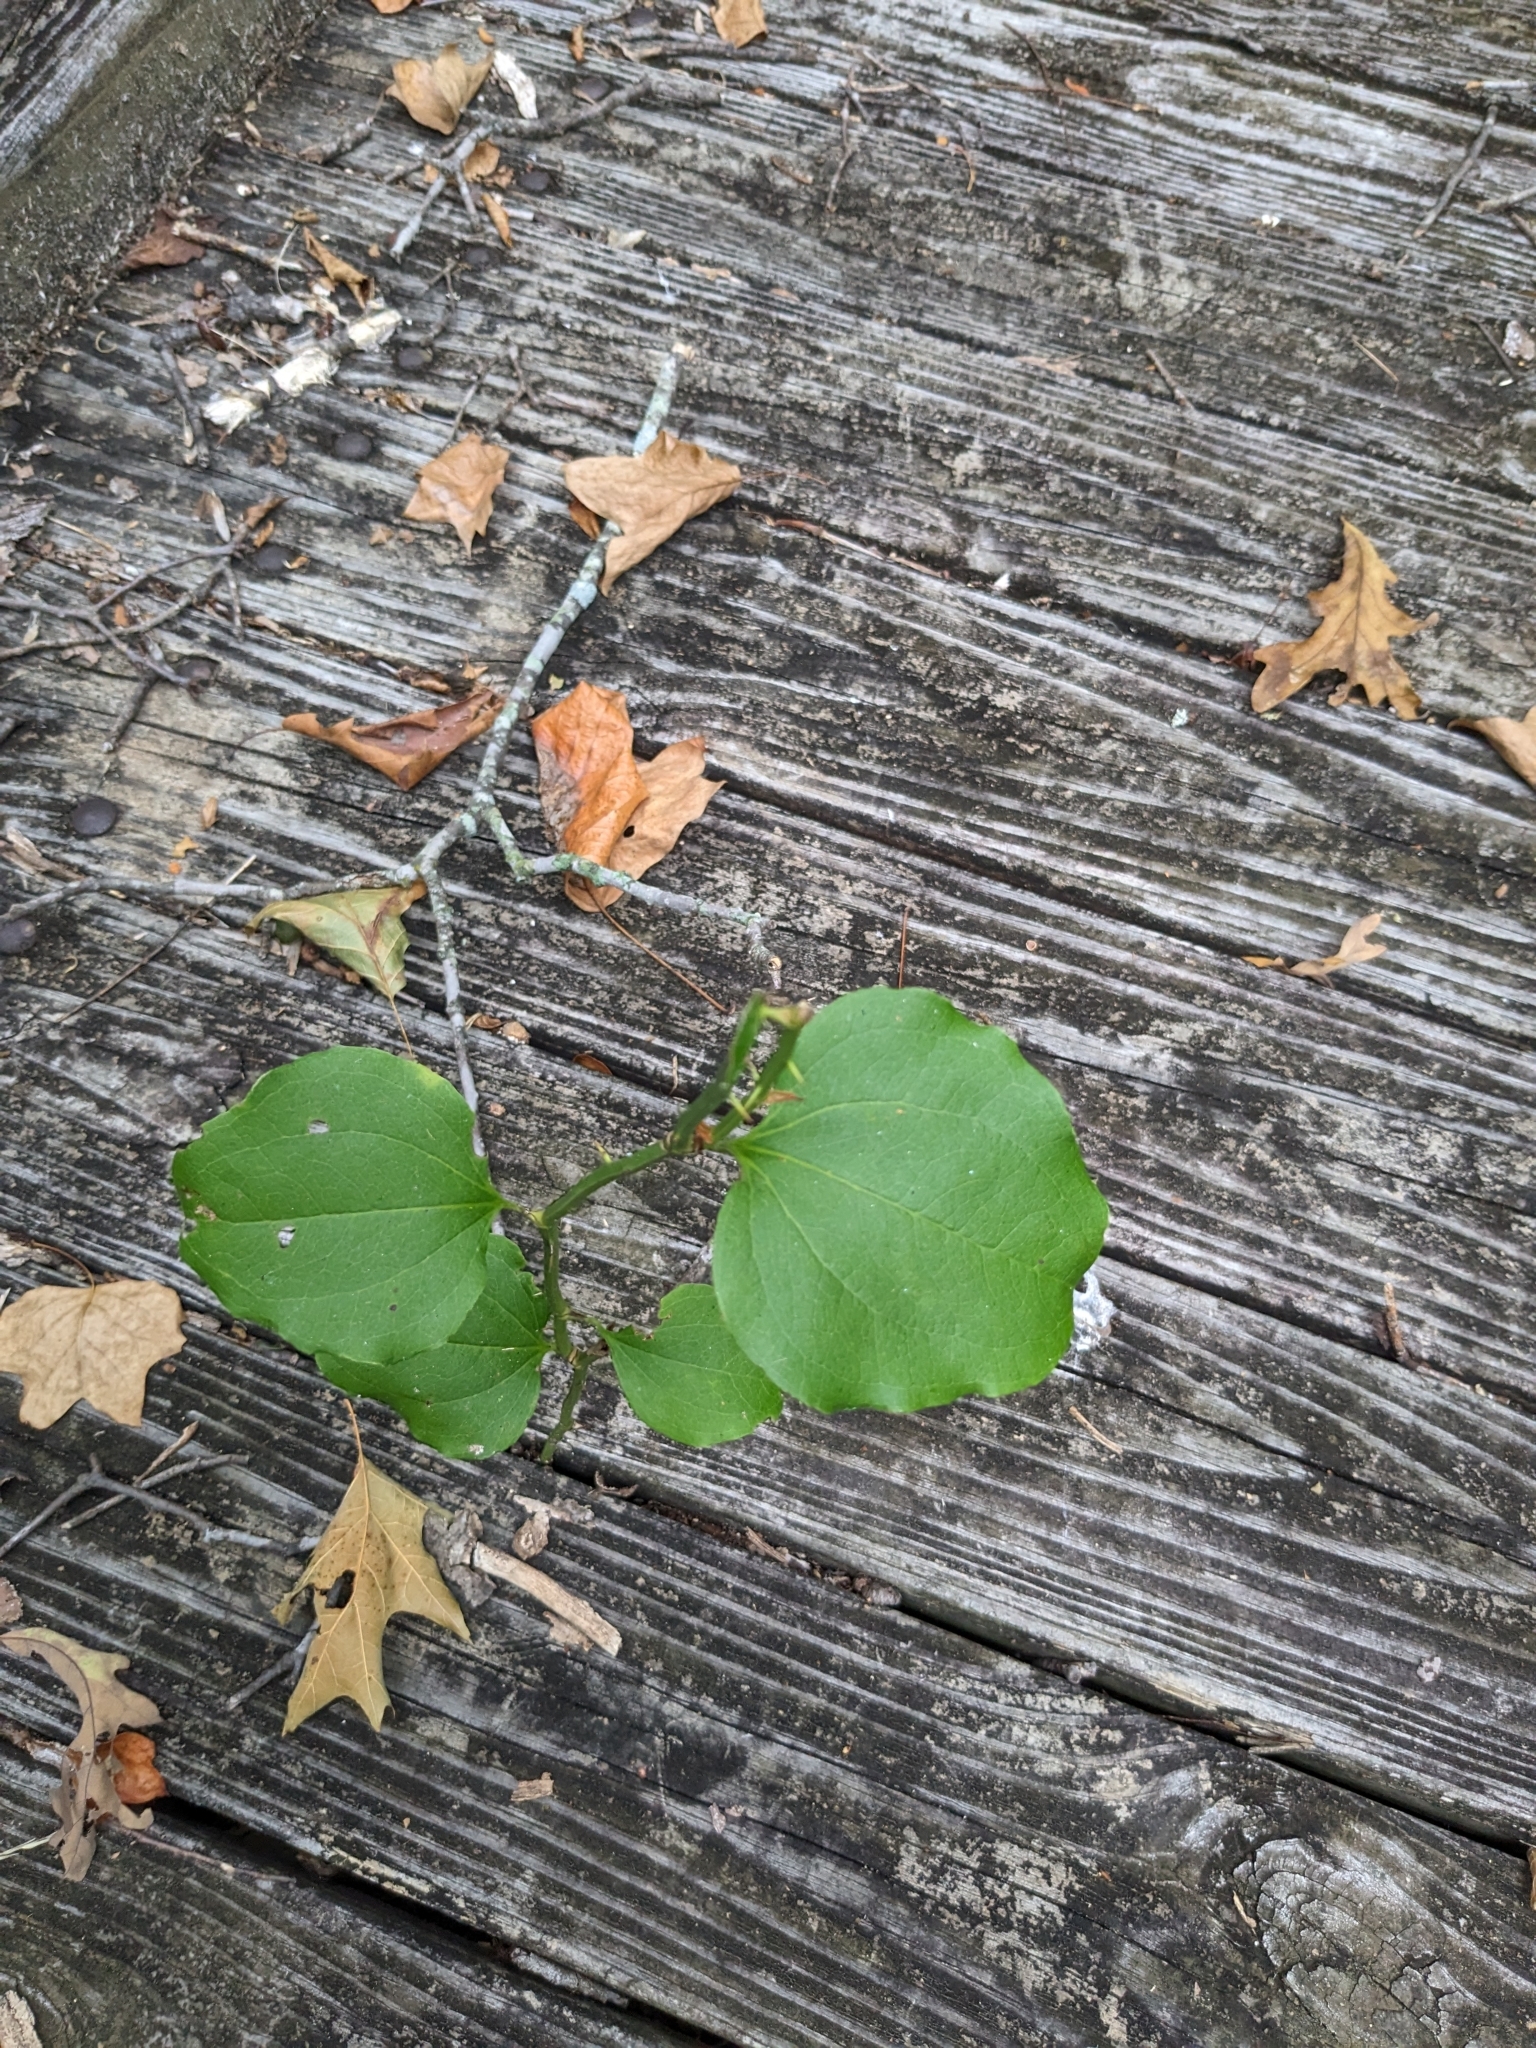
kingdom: Plantae
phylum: Tracheophyta
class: Liliopsida
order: Liliales
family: Smilacaceae
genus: Smilax
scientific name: Smilax rotundifolia
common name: Bullbriar
